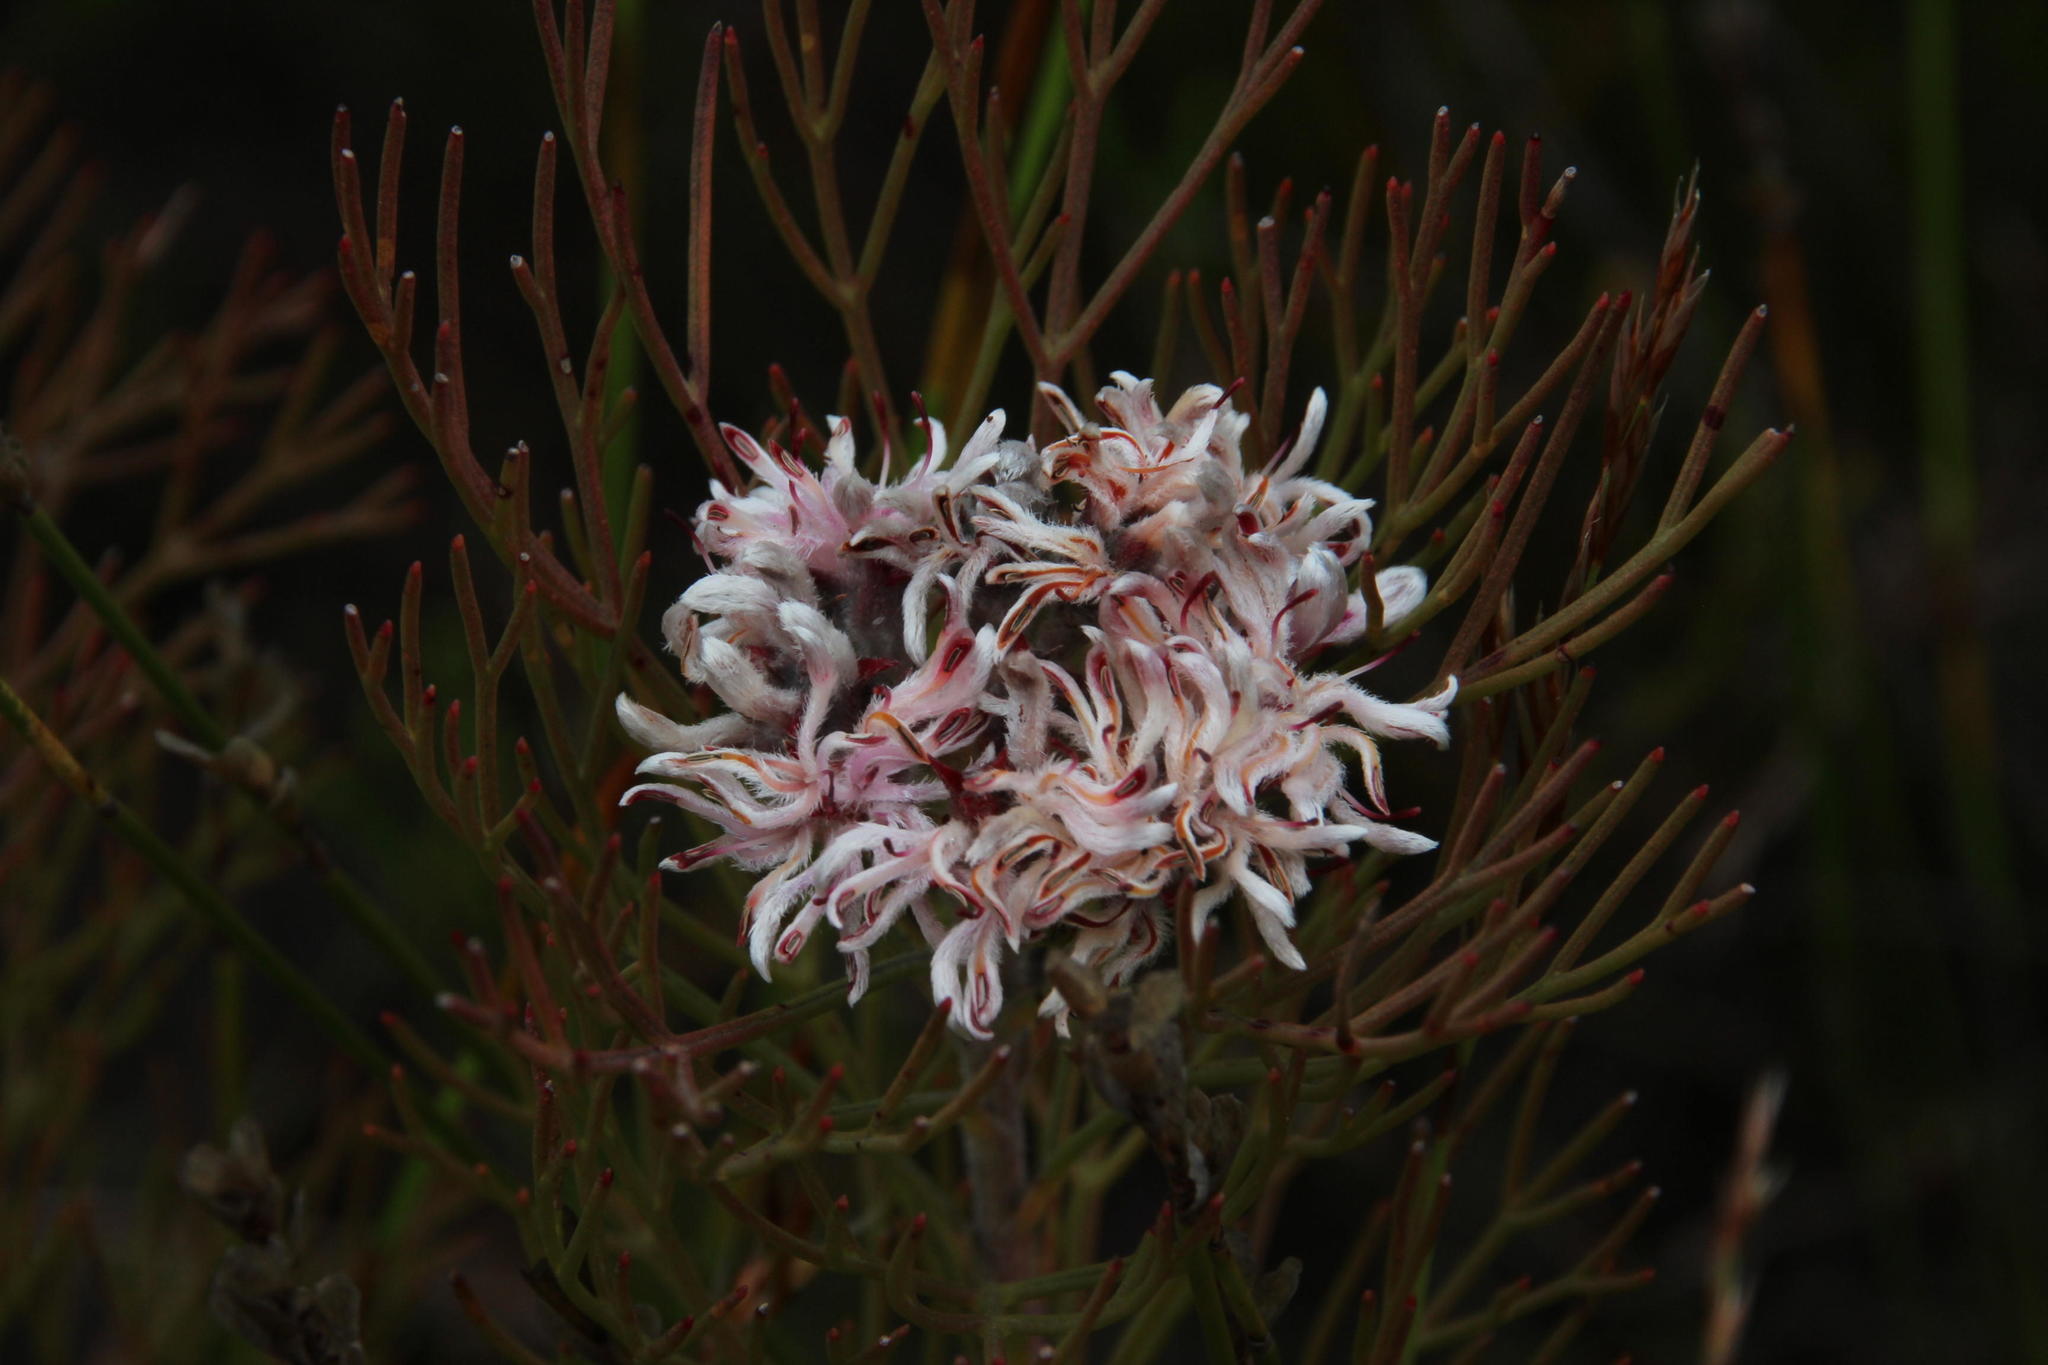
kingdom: Plantae
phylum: Tracheophyta
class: Magnoliopsida
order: Proteales
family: Proteaceae
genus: Serruria
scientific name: Serruria ascendens
